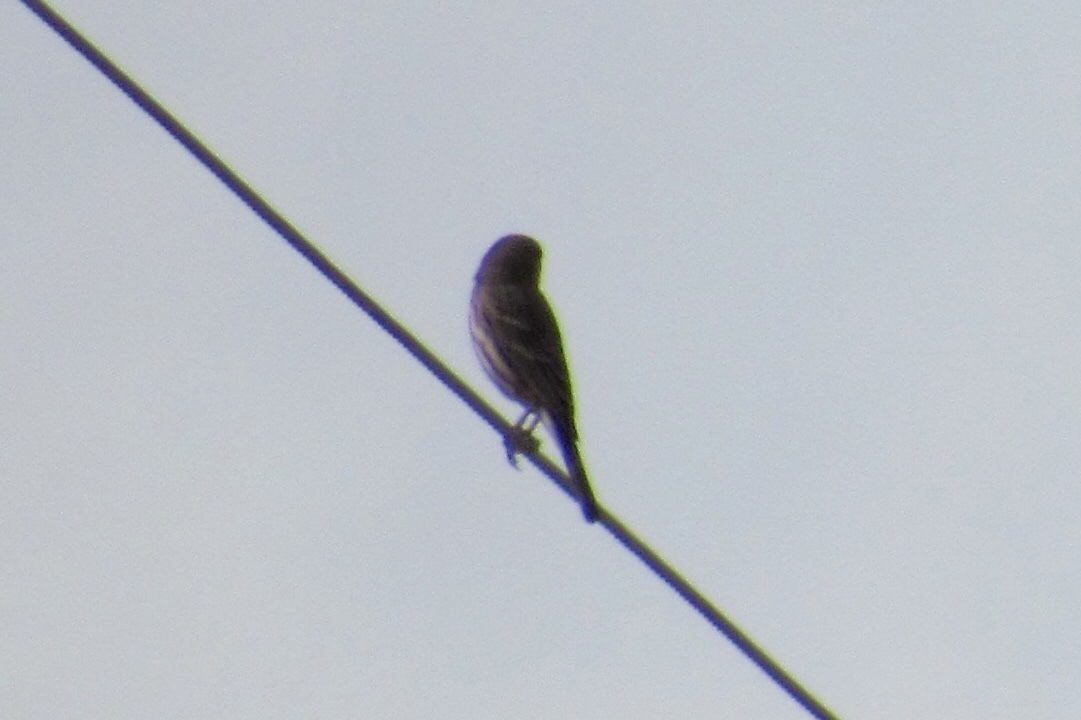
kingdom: Animalia
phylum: Chordata
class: Aves
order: Passeriformes
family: Fringillidae
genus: Haemorhous
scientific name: Haemorhous mexicanus
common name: House finch
